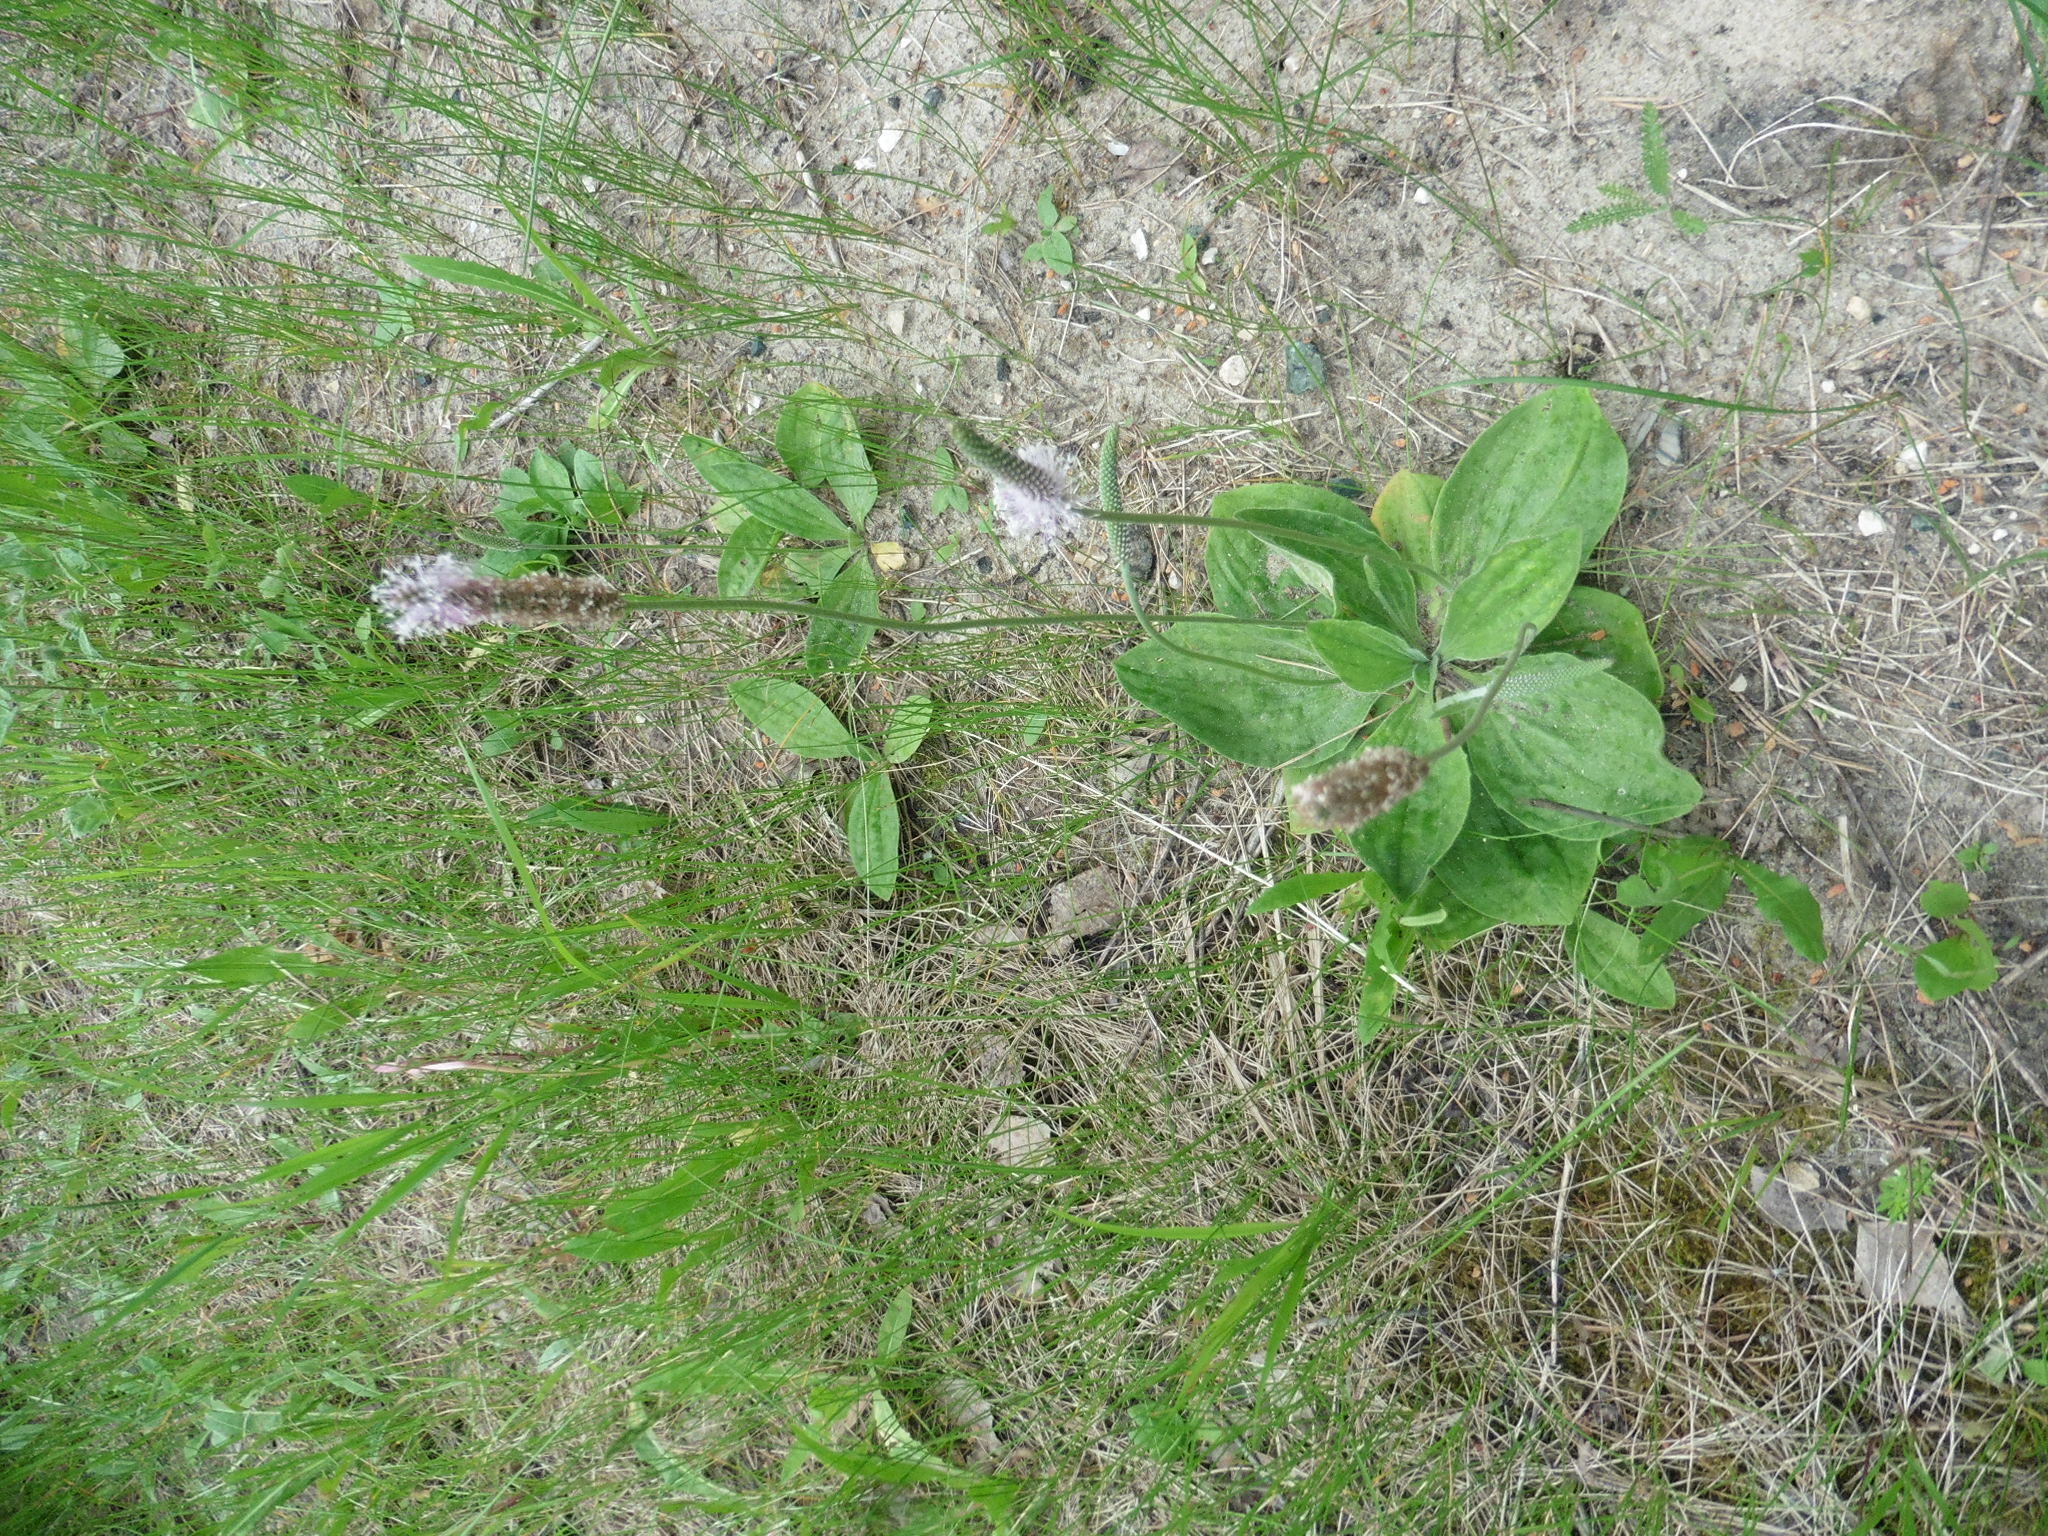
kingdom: Plantae
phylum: Tracheophyta
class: Magnoliopsida
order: Lamiales
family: Plantaginaceae
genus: Plantago
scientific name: Plantago media
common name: Hoary plantain
